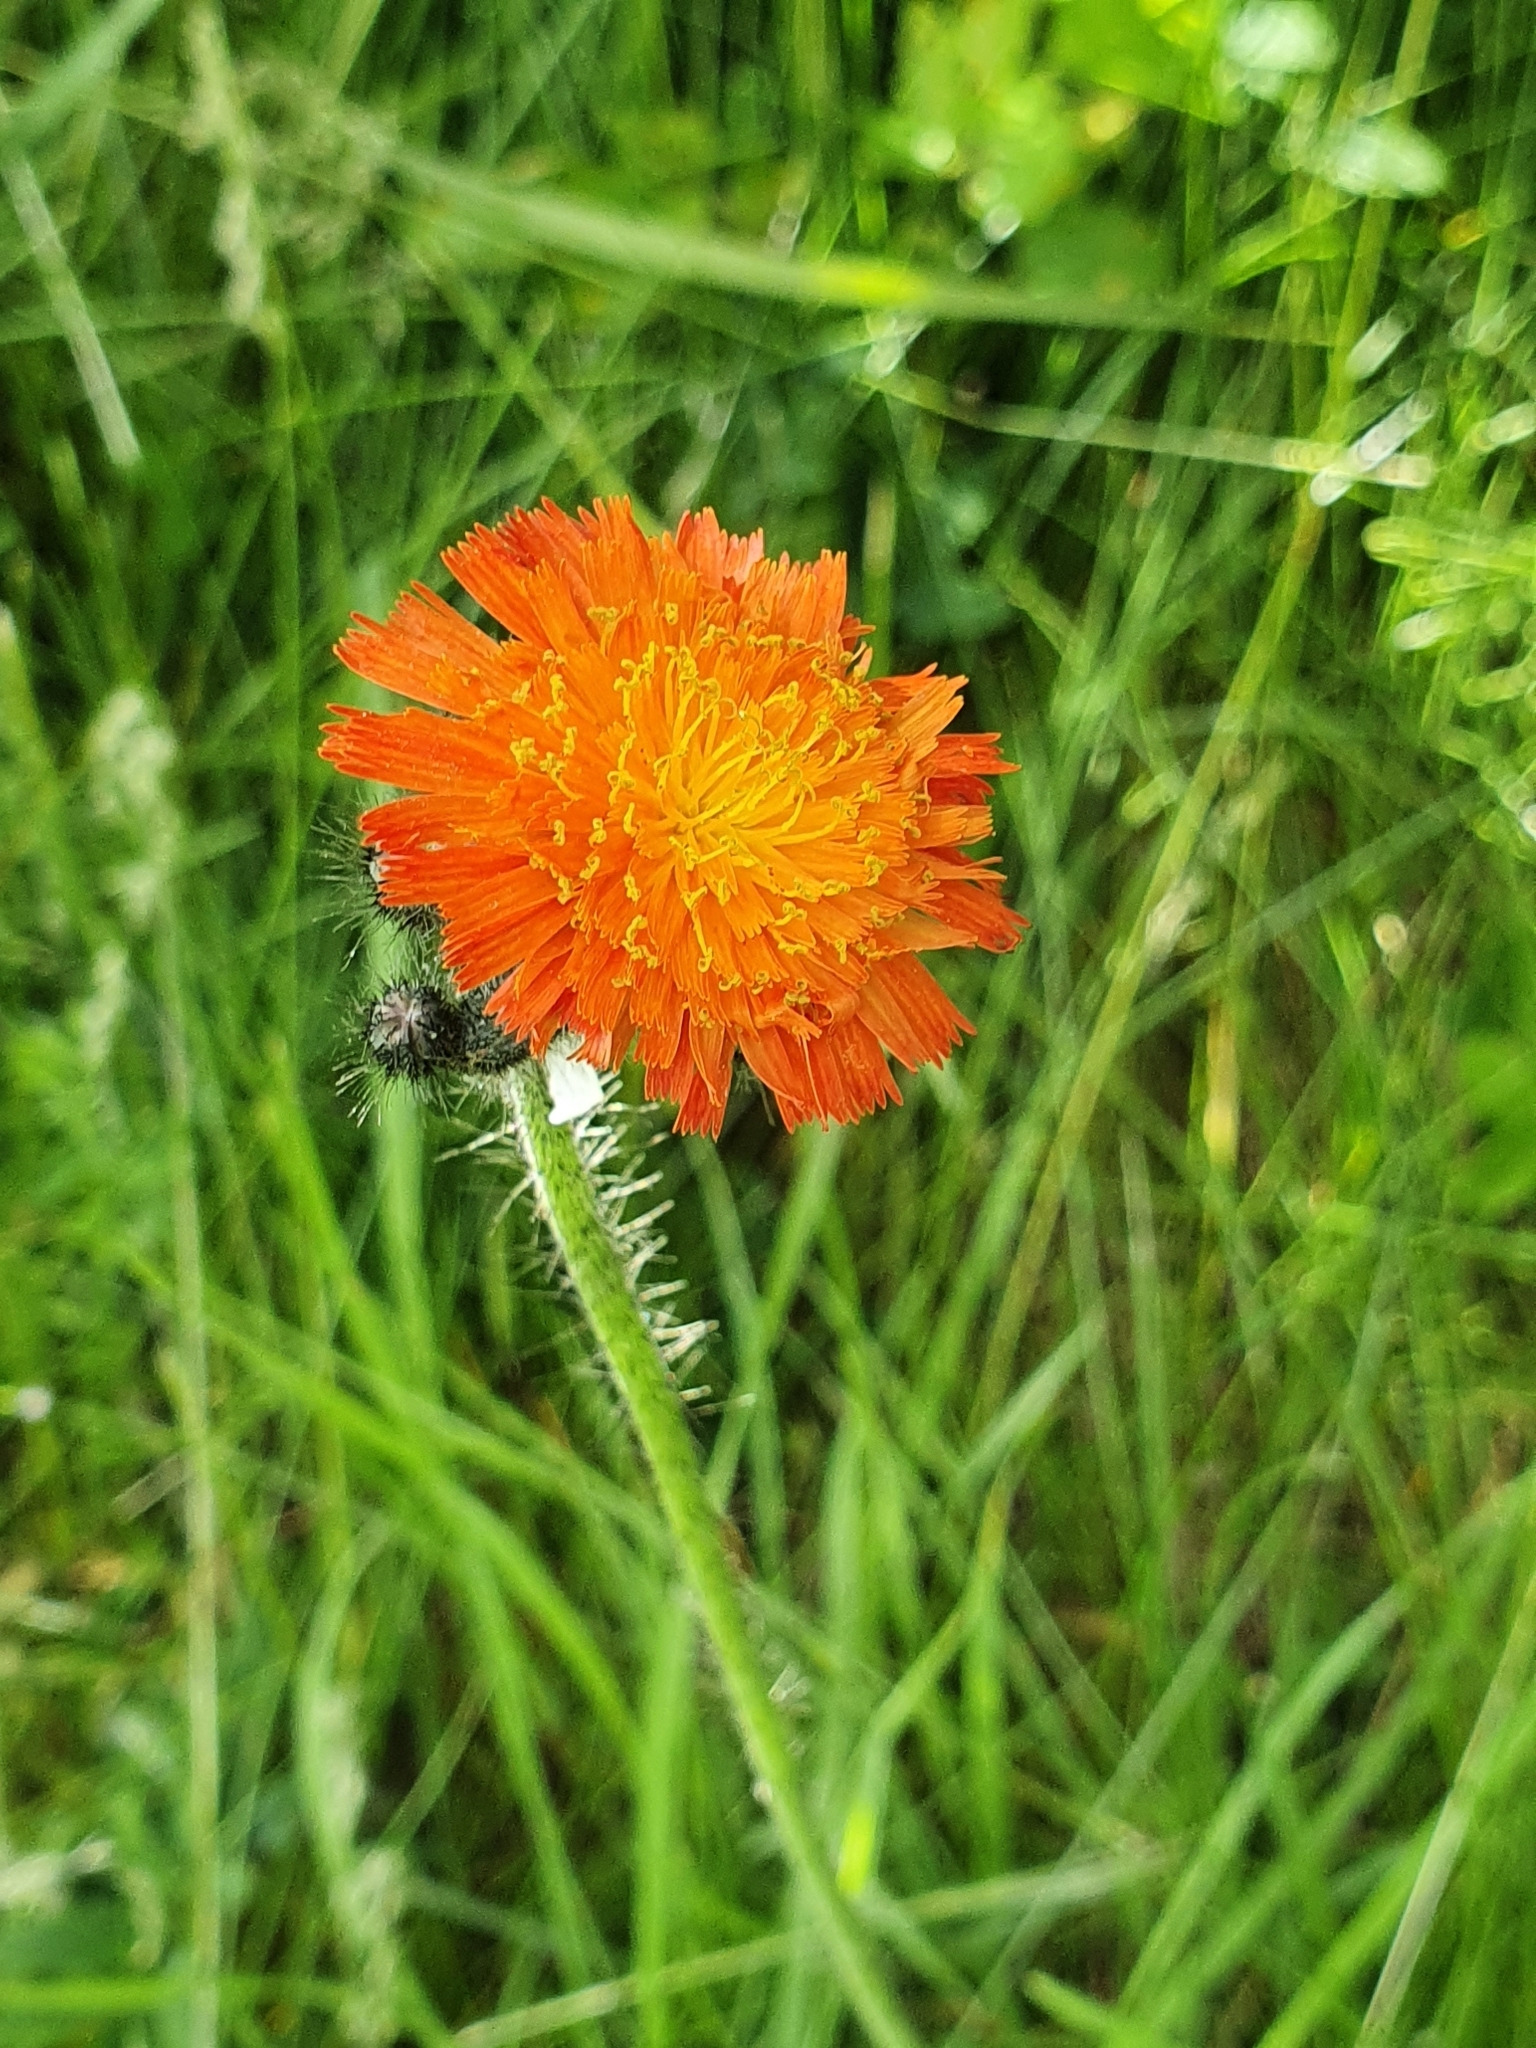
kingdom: Plantae
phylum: Tracheophyta
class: Magnoliopsida
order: Asterales
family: Asteraceae
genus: Pilosella
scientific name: Pilosella aurantiaca
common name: Fox-and-cubs
